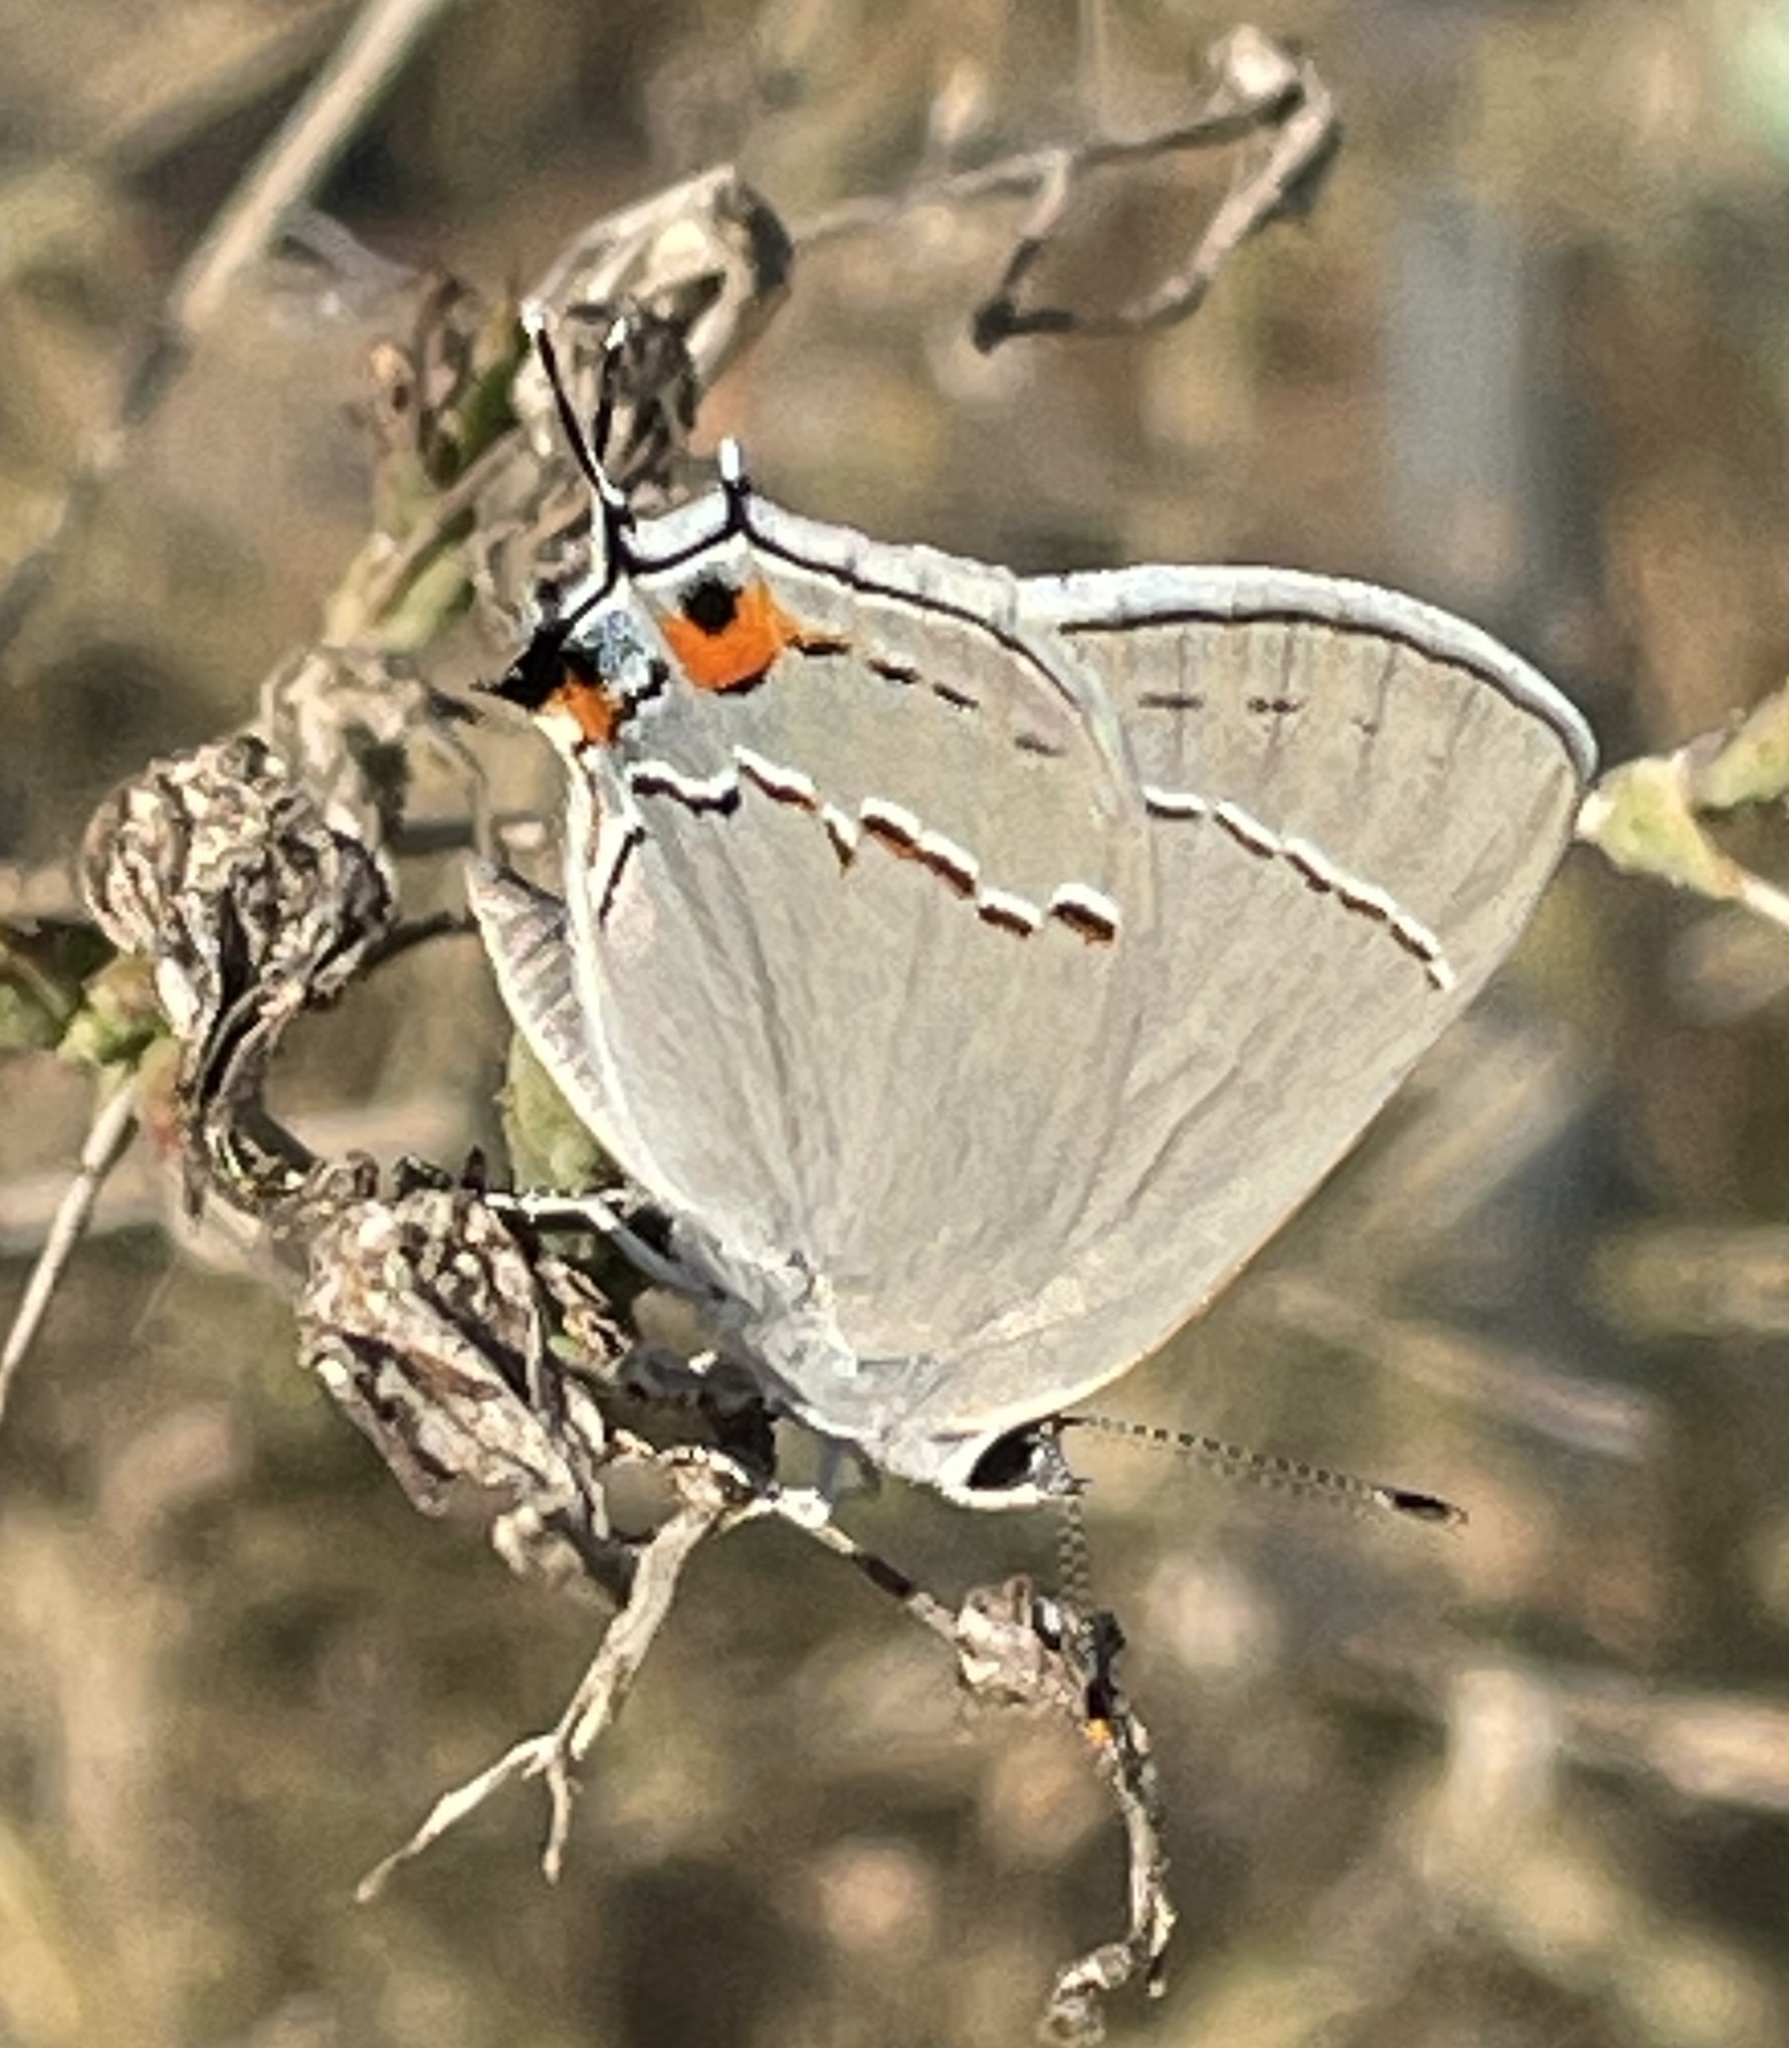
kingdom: Animalia
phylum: Arthropoda
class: Insecta
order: Lepidoptera
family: Lycaenidae
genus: Strymon
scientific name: Strymon melinus
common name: Gray hairstreak
